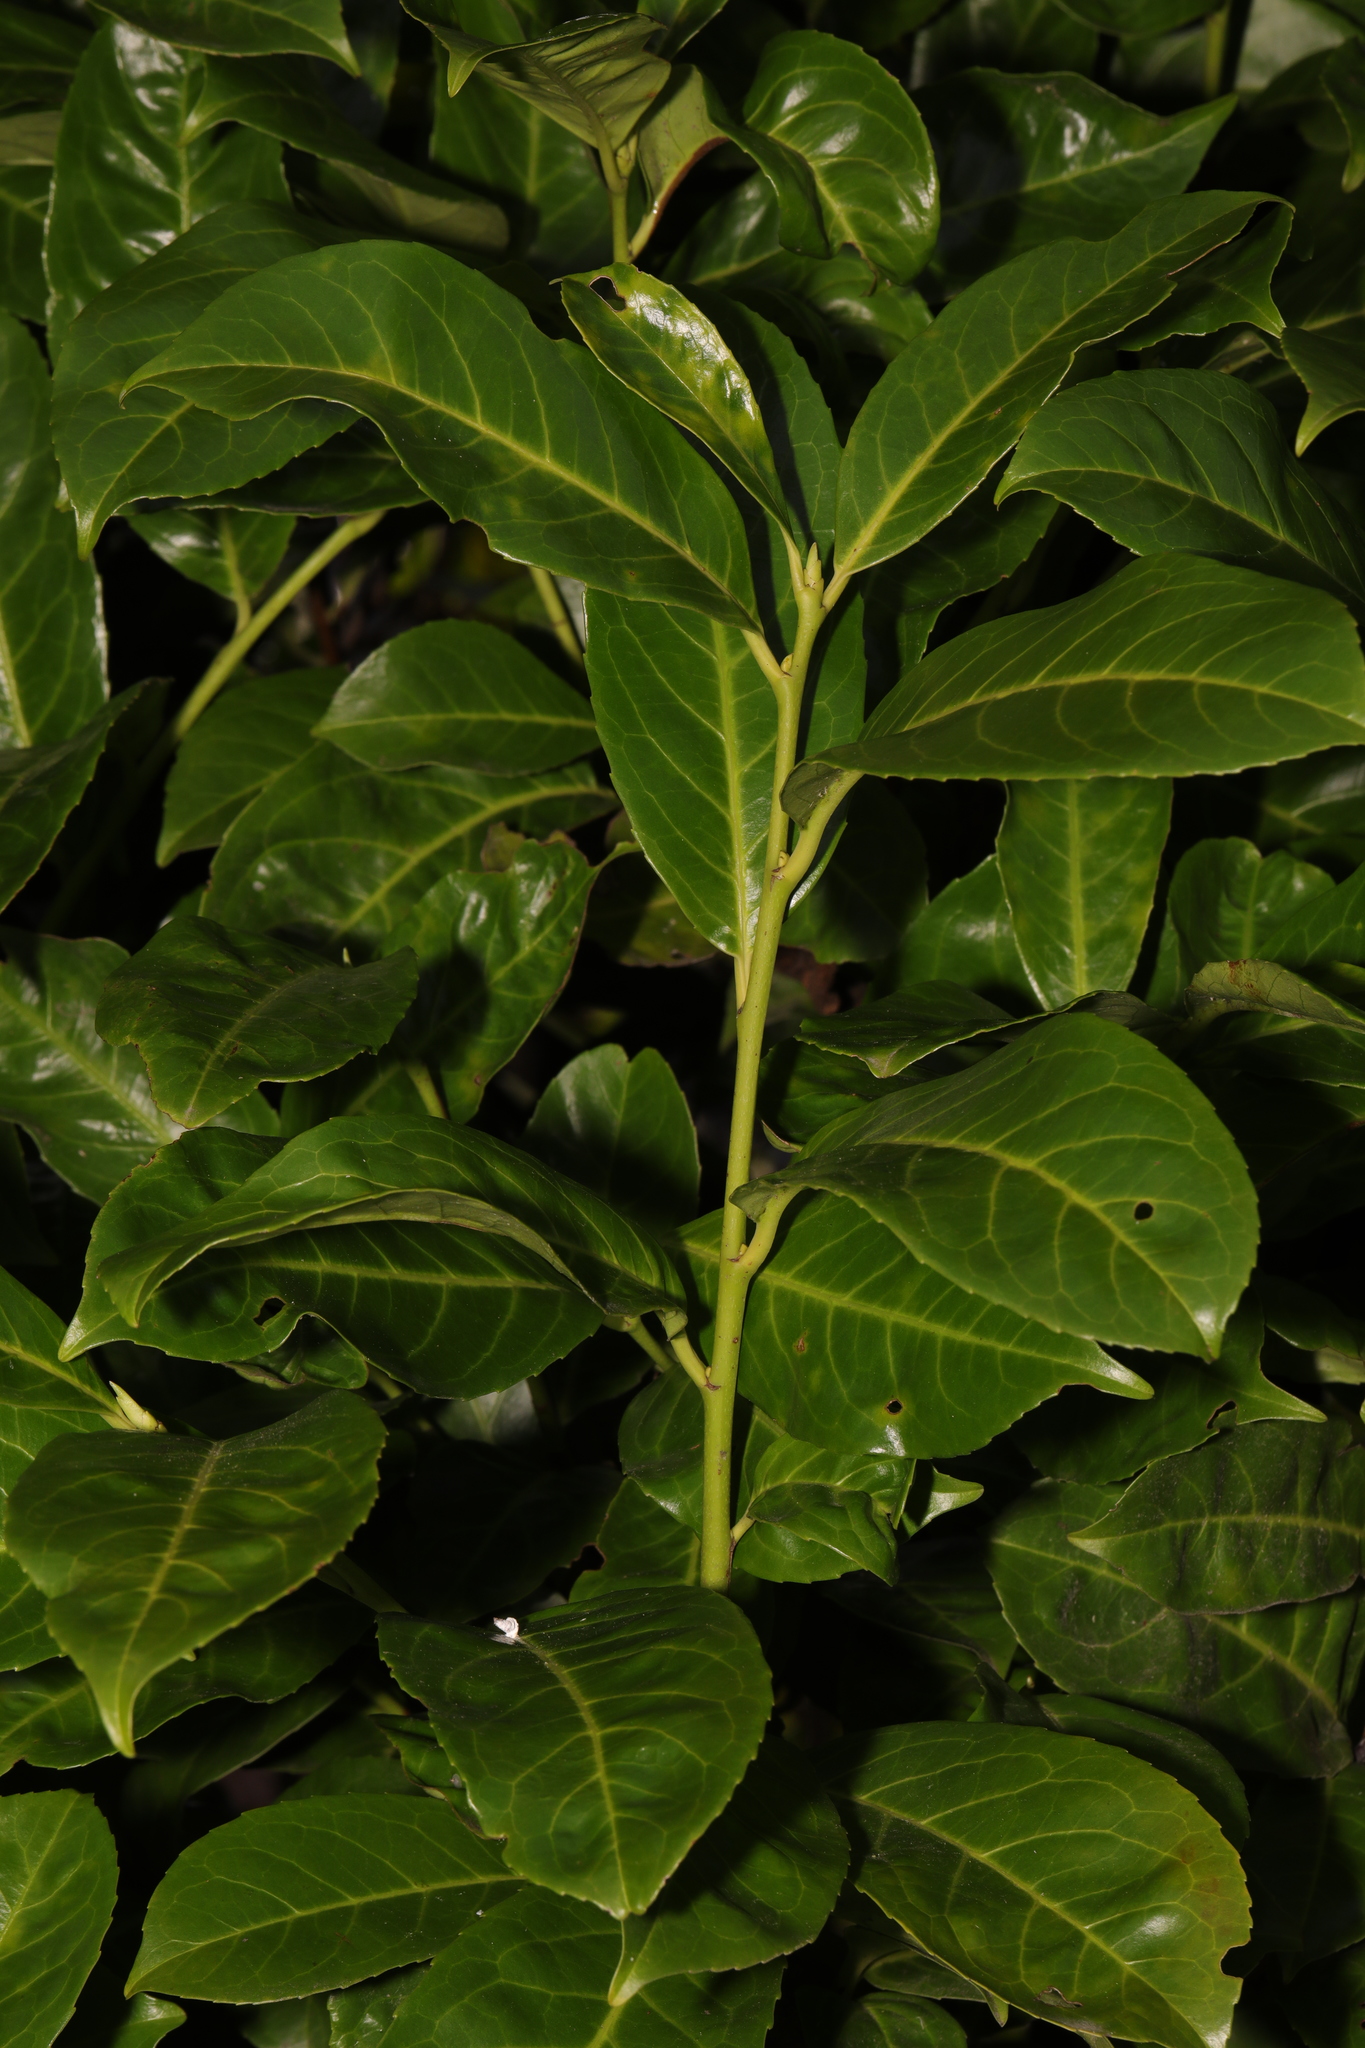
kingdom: Plantae
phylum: Tracheophyta
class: Magnoliopsida
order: Rosales
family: Rosaceae
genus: Prunus
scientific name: Prunus laurocerasus
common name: Cherry laurel
